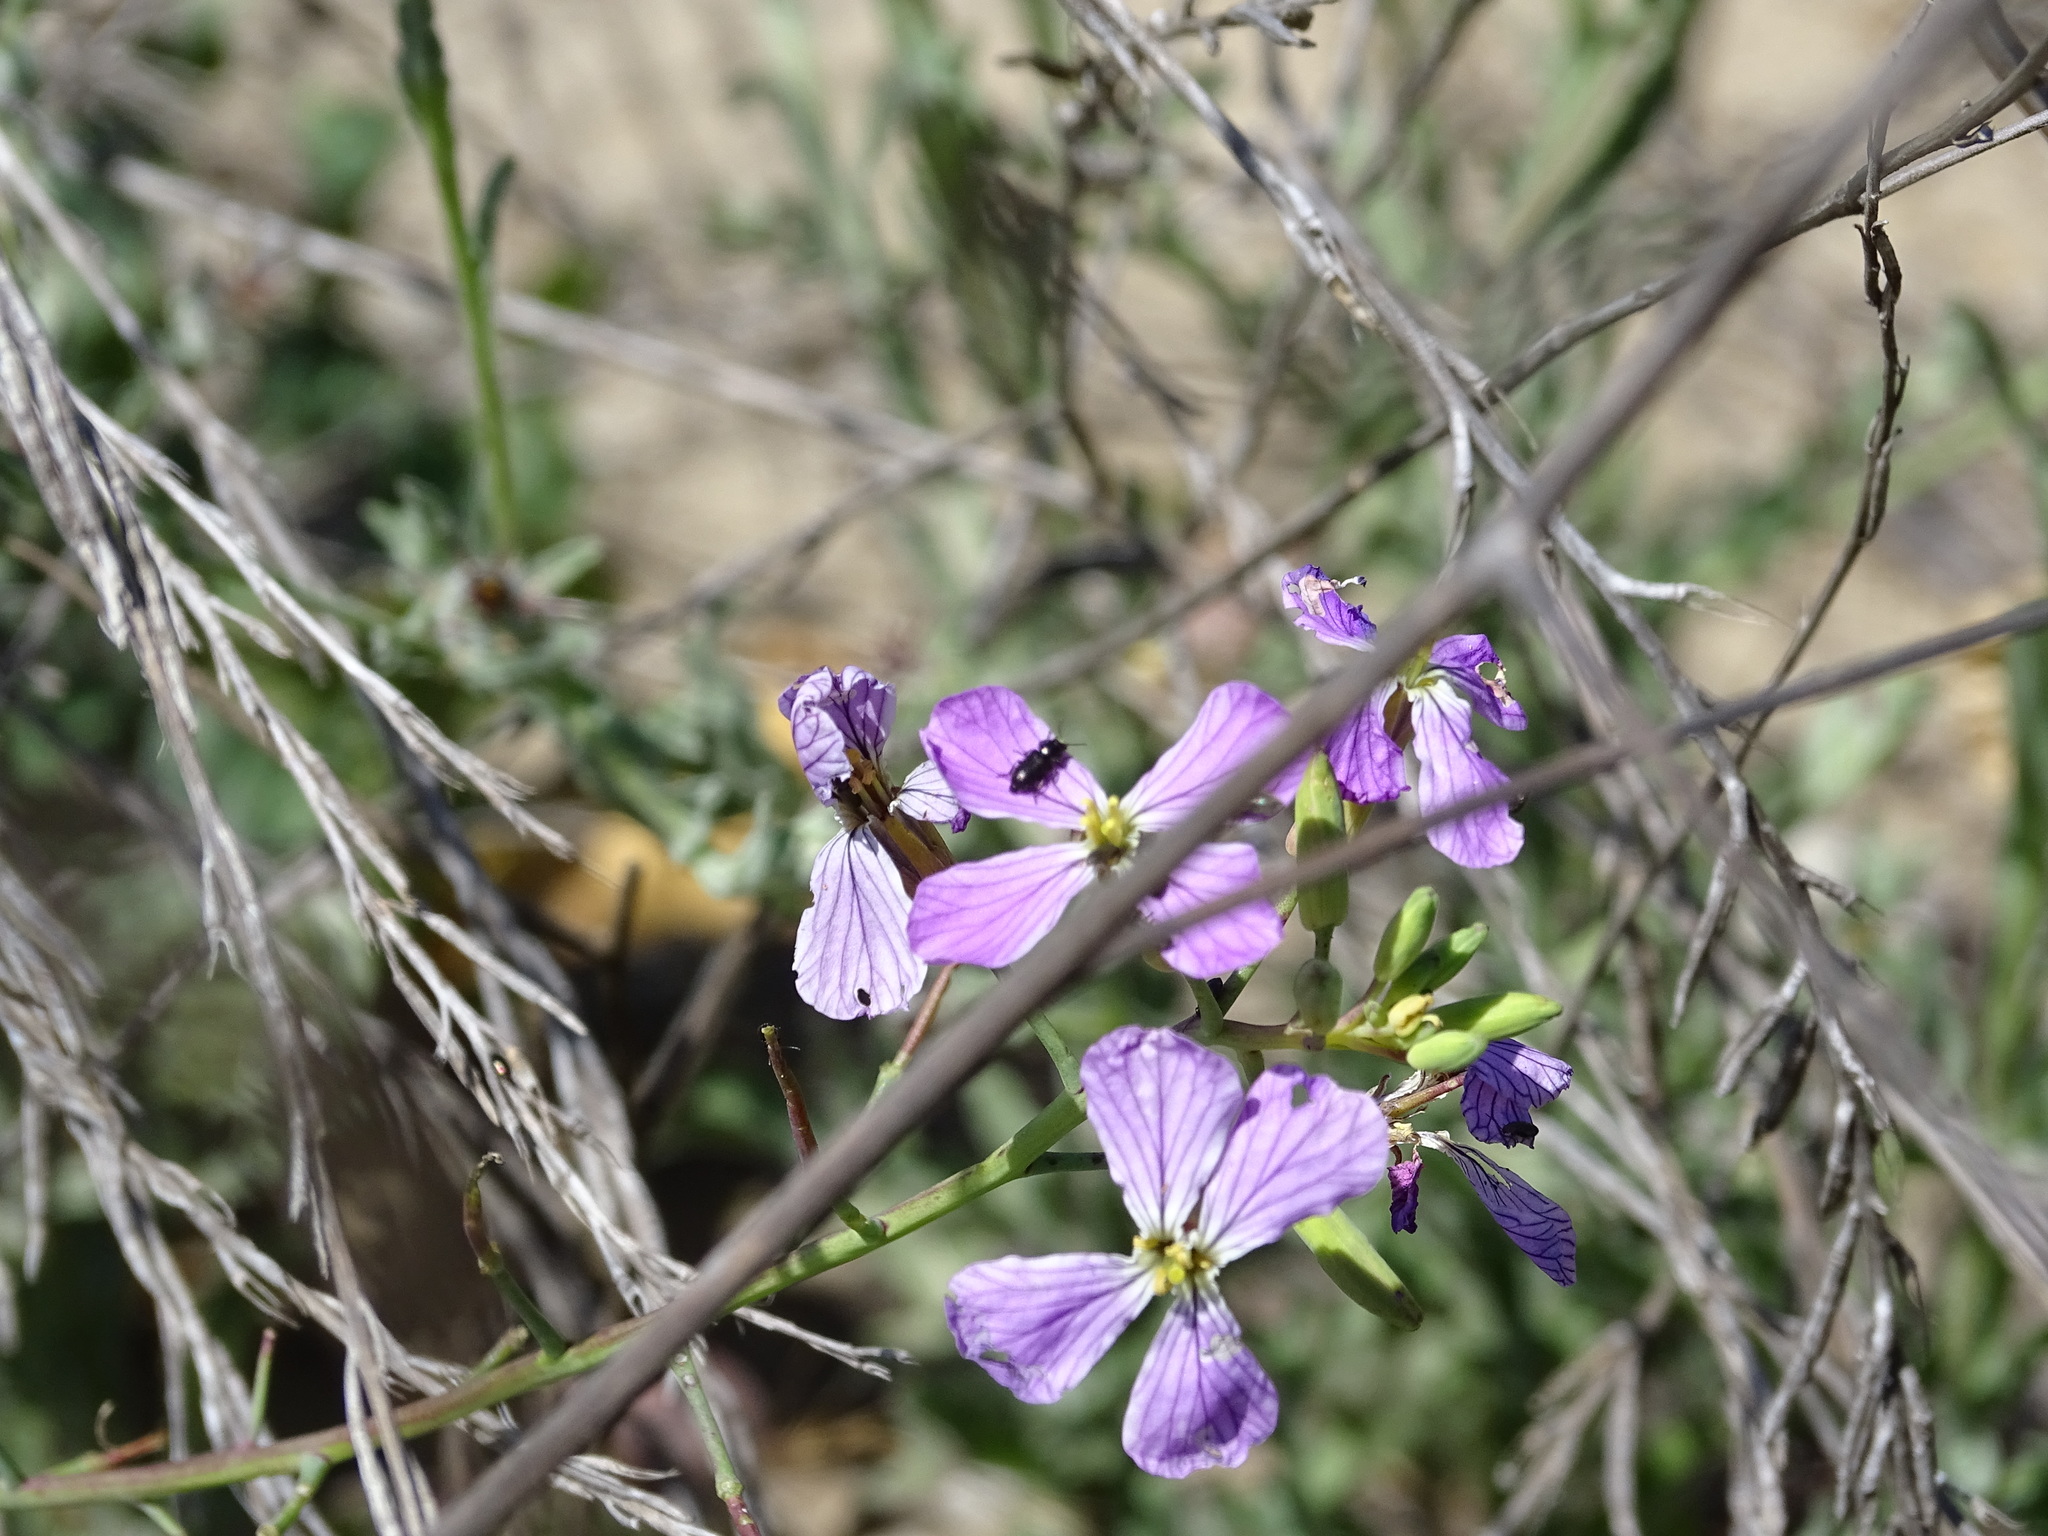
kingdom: Plantae
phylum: Tracheophyta
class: Magnoliopsida
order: Brassicales
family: Brassicaceae
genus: Raphanus
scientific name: Raphanus sativus
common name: Cultivated radish
